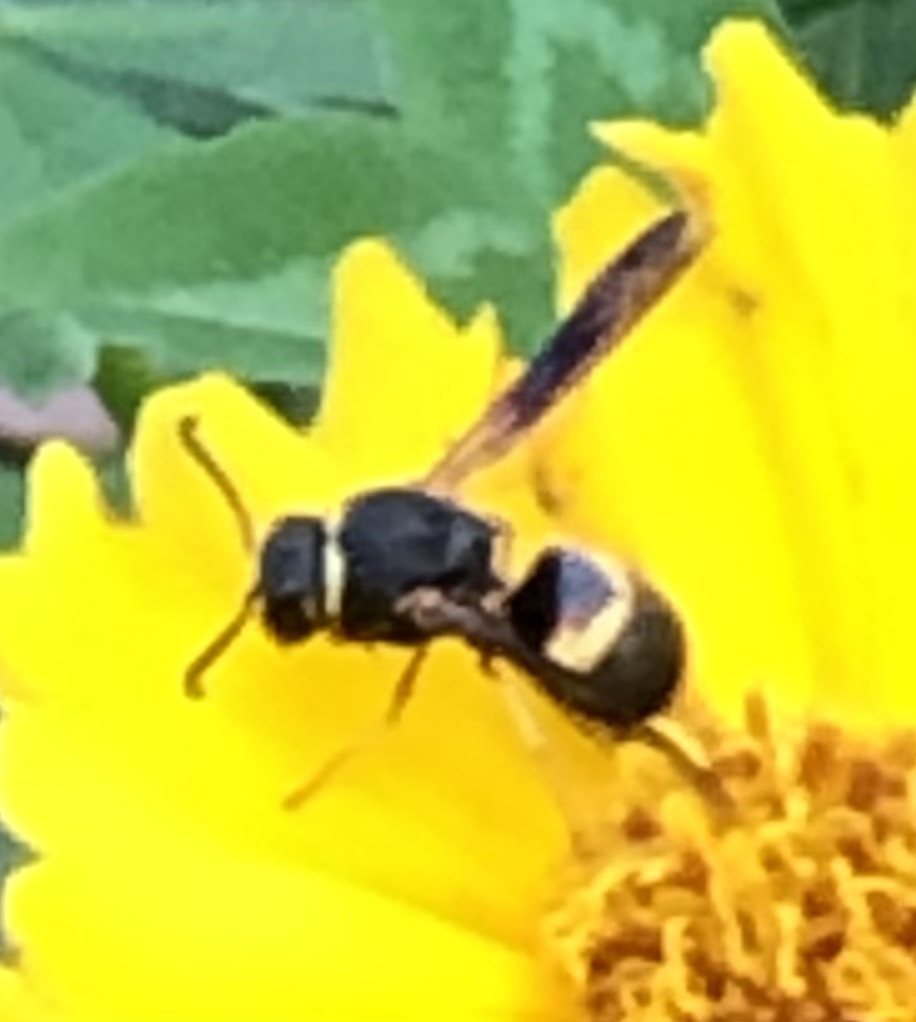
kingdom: Animalia
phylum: Arthropoda
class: Insecta
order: Hymenoptera
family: Eumenidae
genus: Euodynerus
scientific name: Euodynerus hidalgo
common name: Wasp
